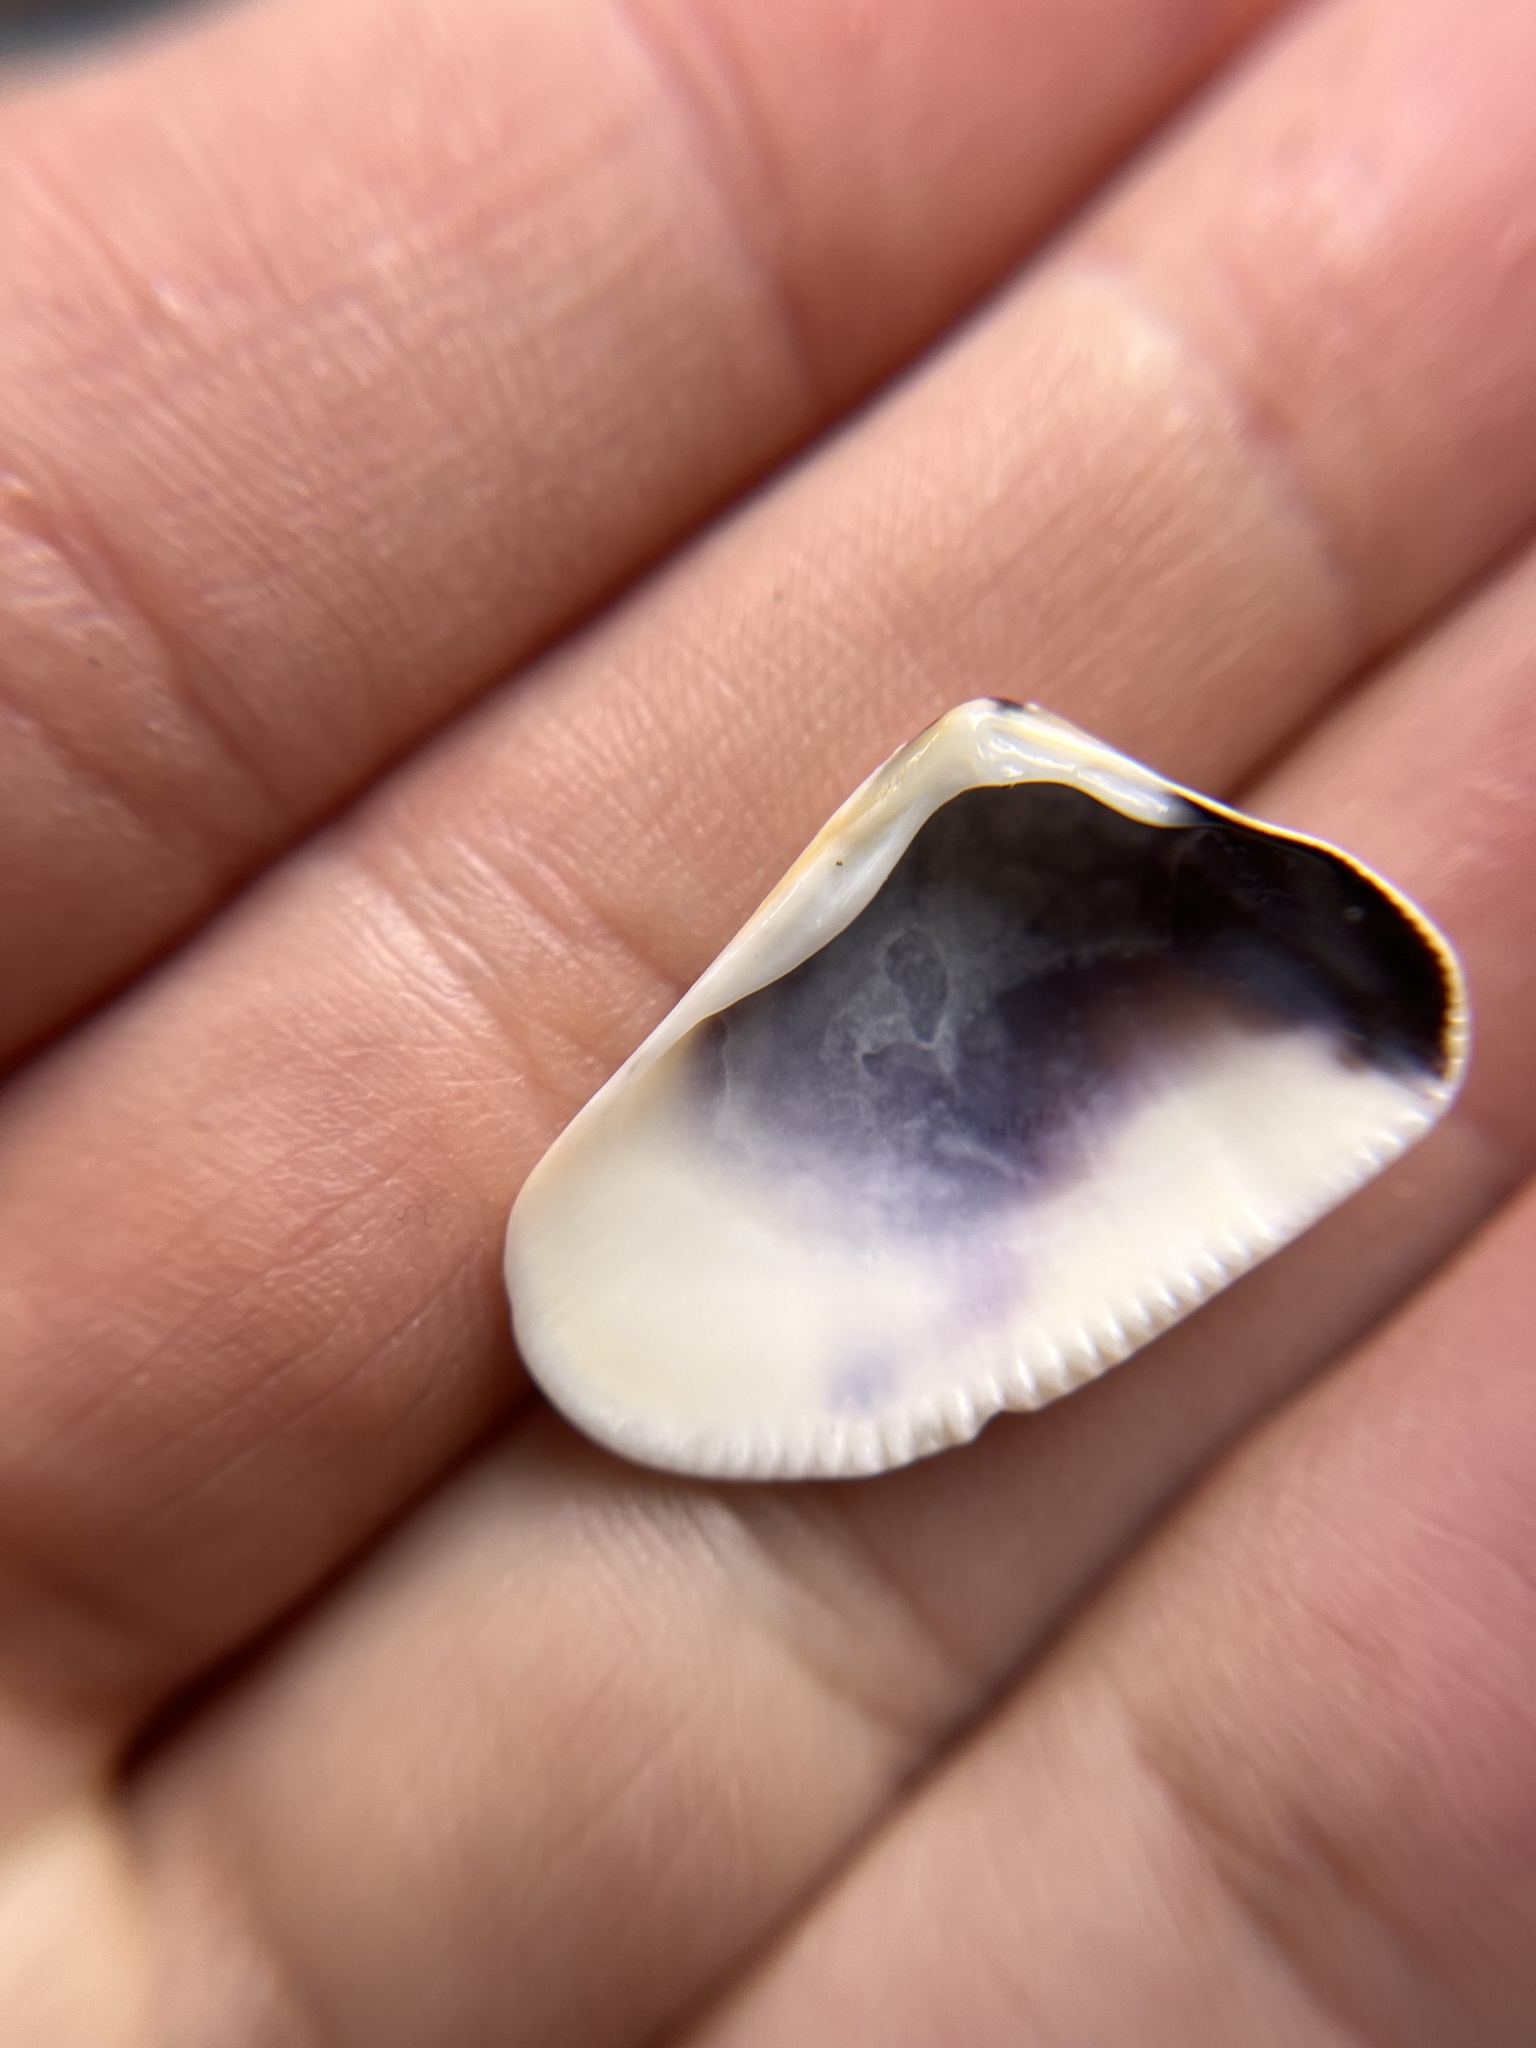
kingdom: Animalia
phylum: Mollusca
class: Bivalvia
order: Cardiida
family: Donacidae
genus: Donax
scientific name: Donax gouldii
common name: Gould beanclam
